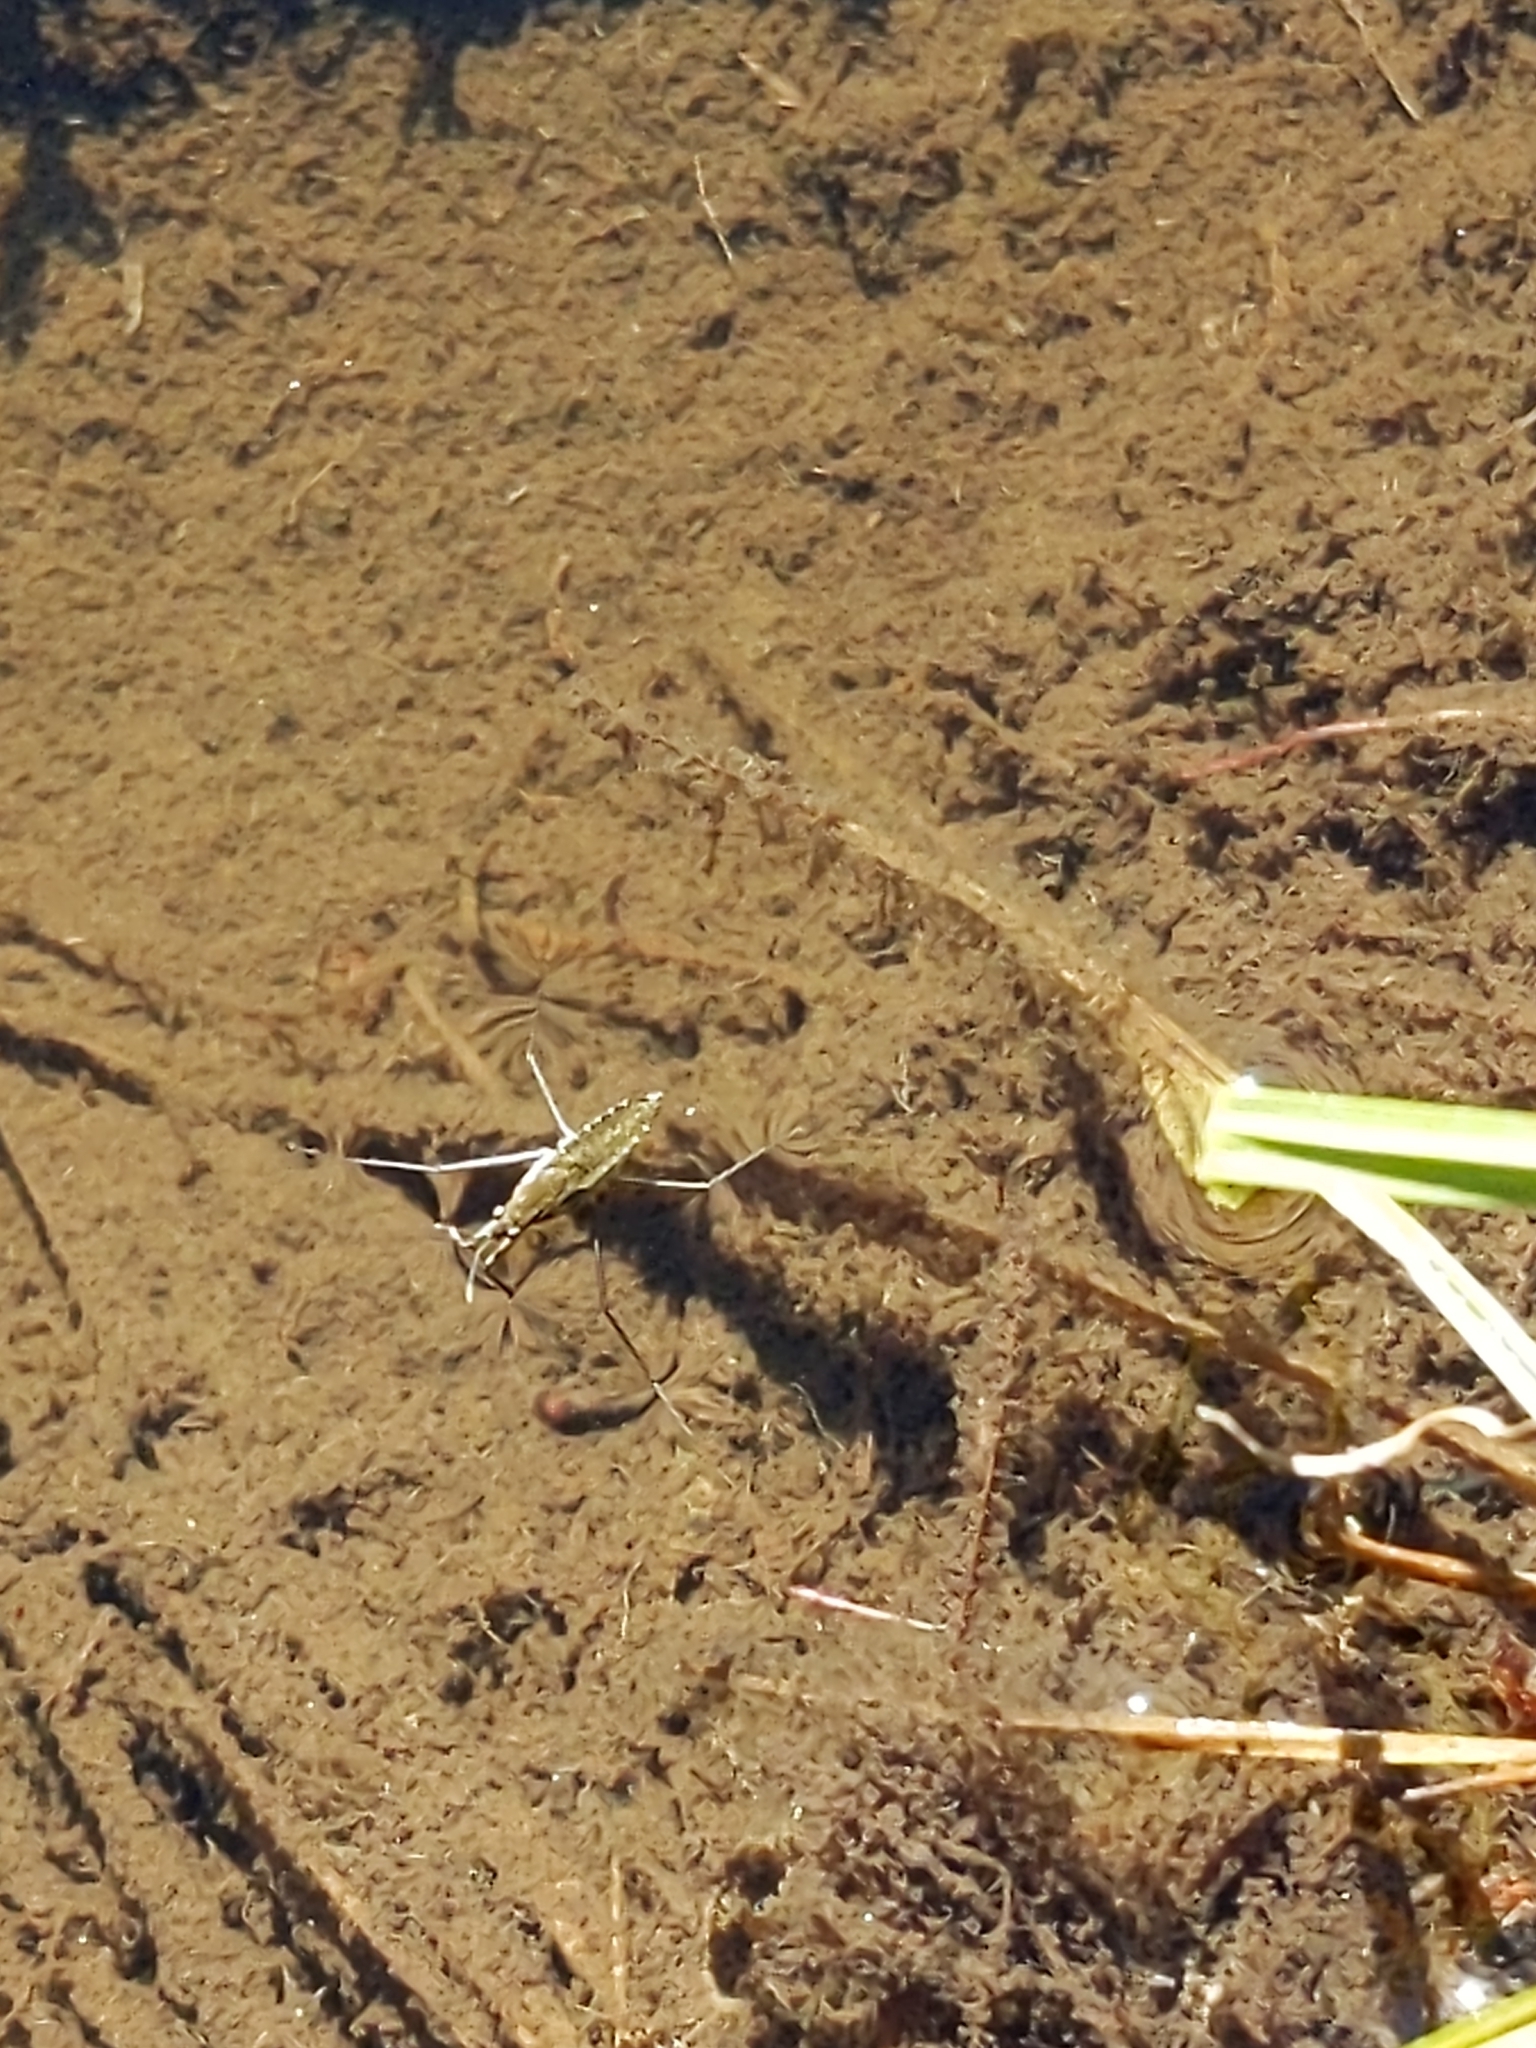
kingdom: Animalia
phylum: Arthropoda
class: Insecta
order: Hemiptera
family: Gerridae
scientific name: Gerridae
